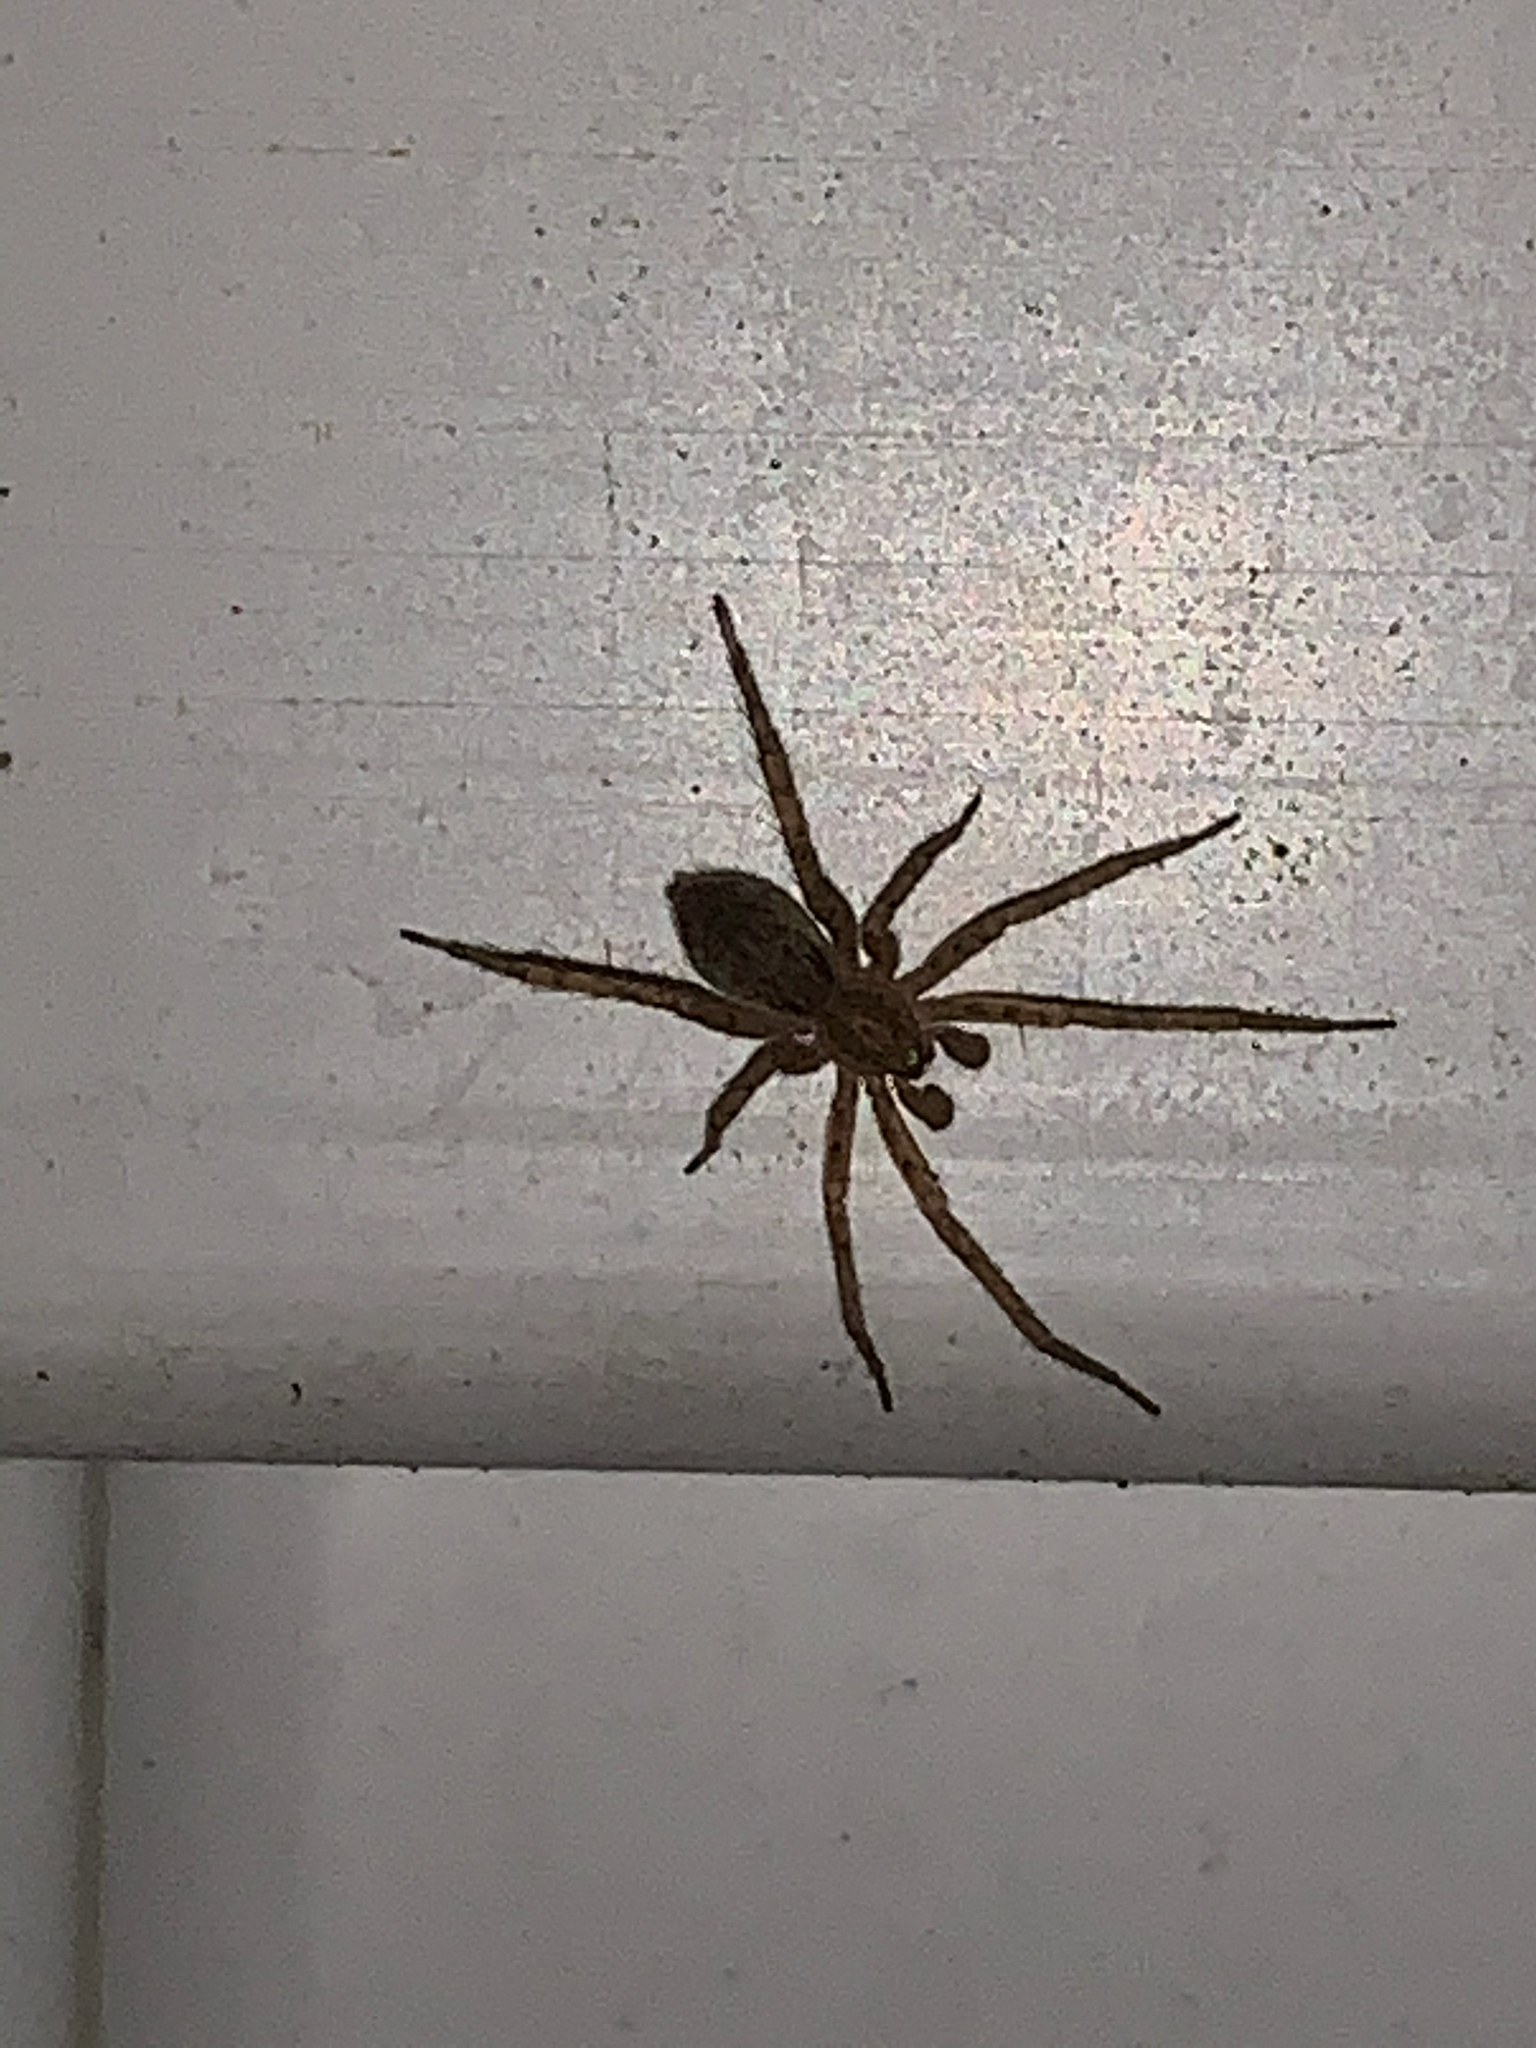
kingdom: Animalia
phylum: Arthropoda
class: Arachnida
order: Araneae
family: Anyphaenidae
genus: Anyphaena
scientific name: Anyphaena
